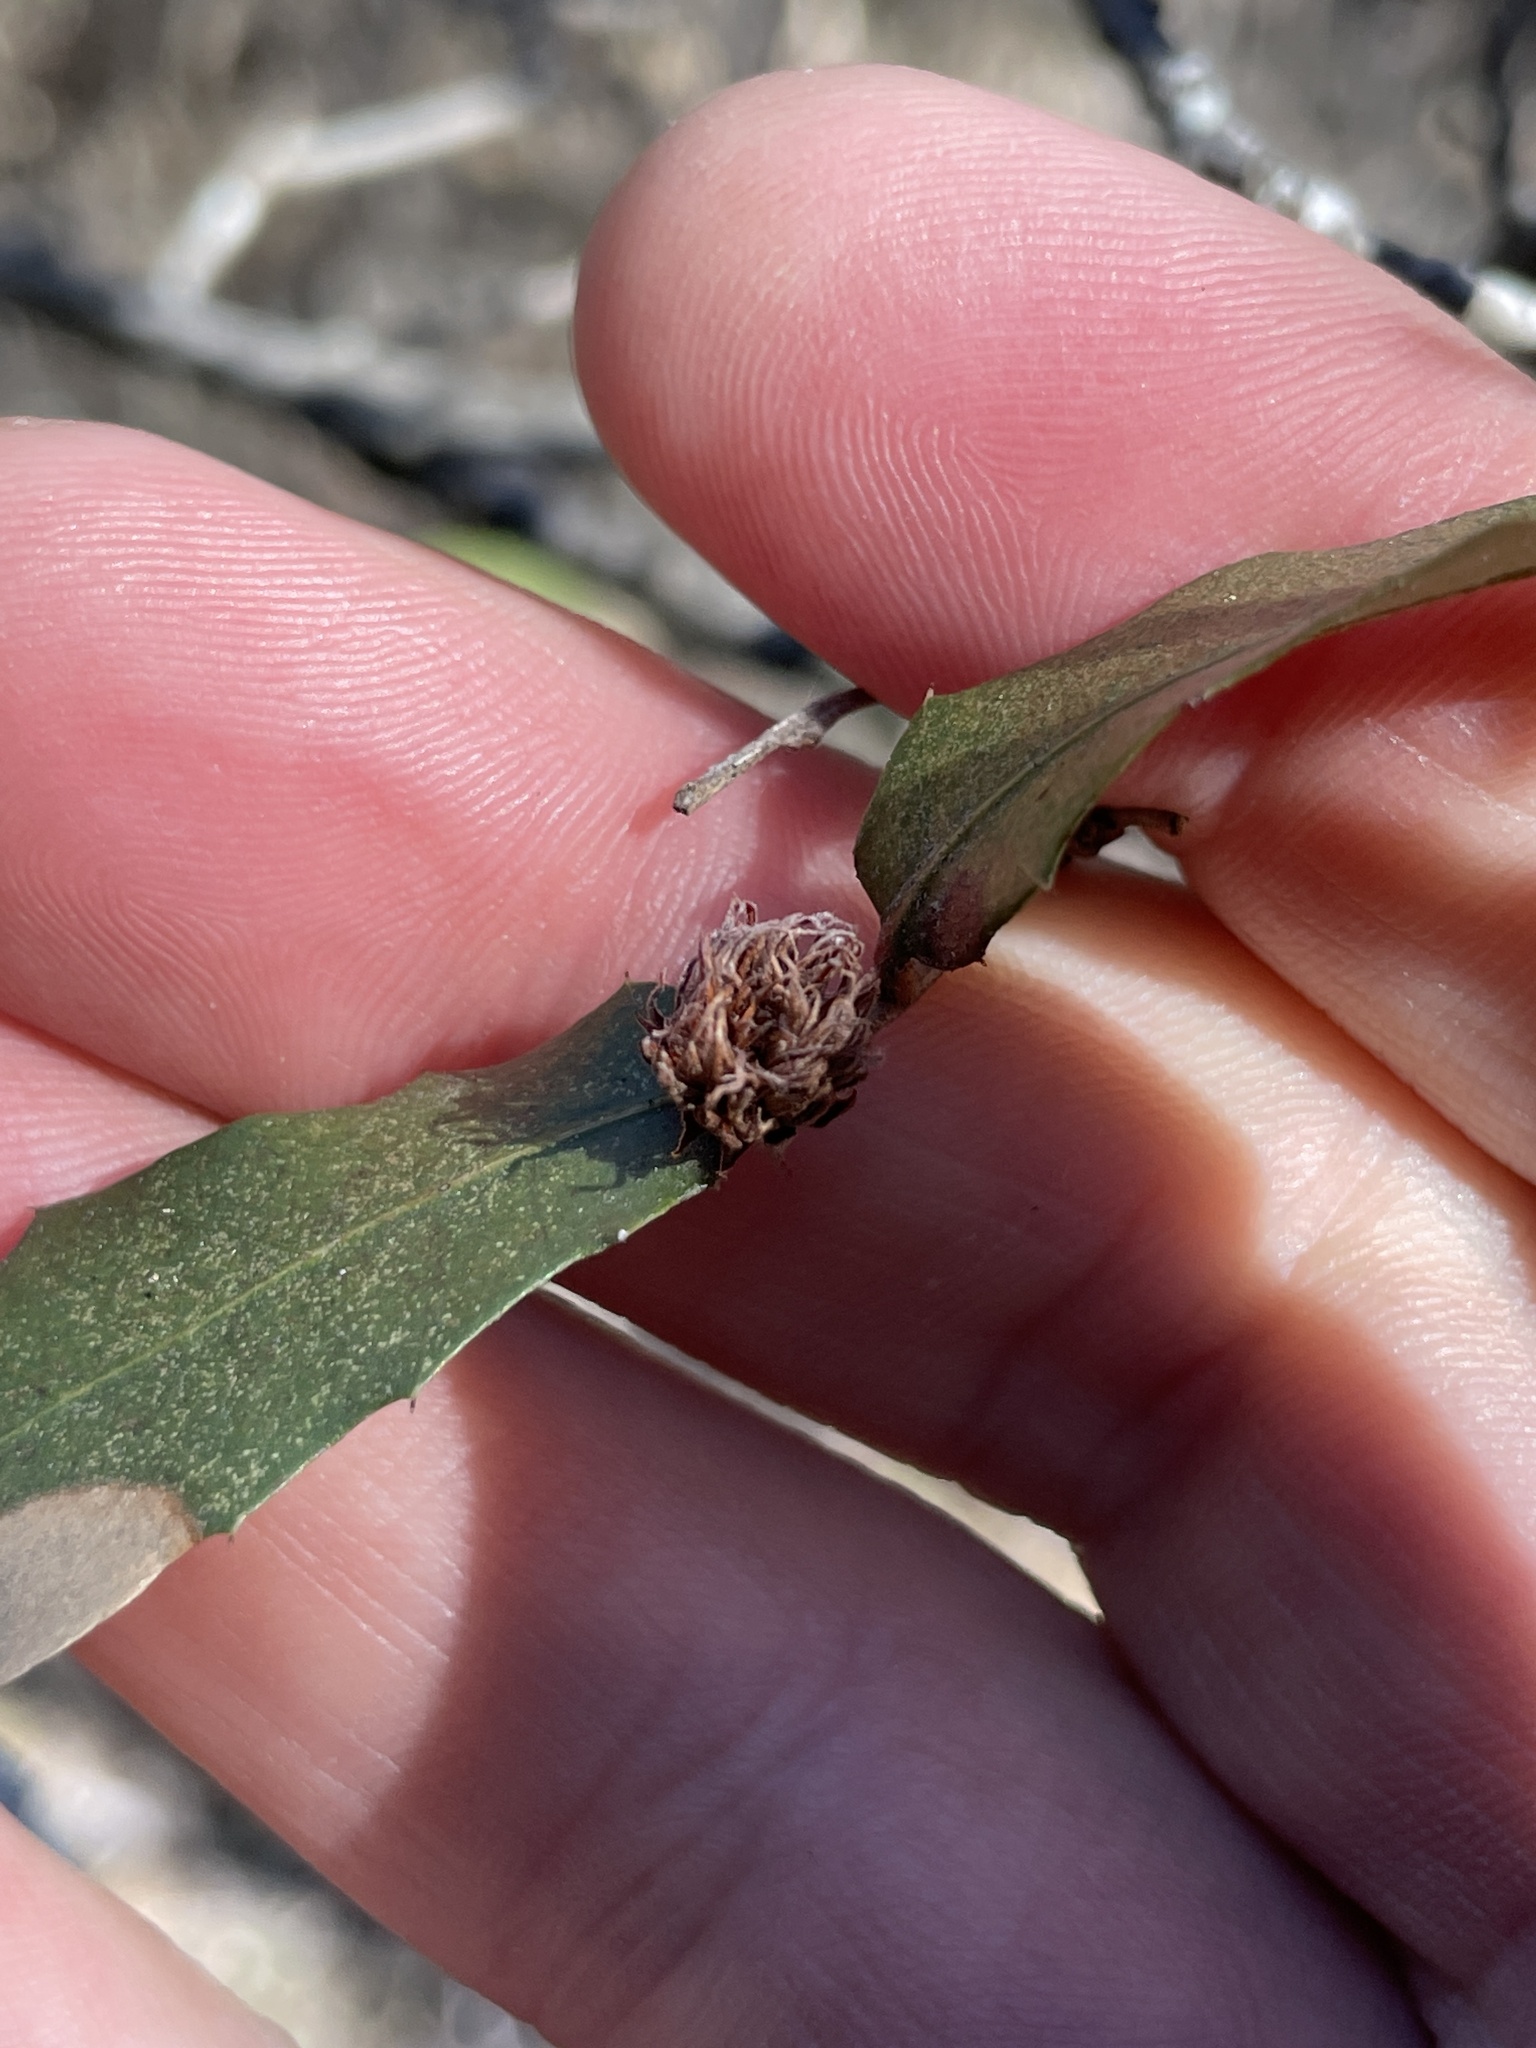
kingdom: Animalia
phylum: Arthropoda
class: Insecta
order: Hymenoptera
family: Cynipidae
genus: Andricus
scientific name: Andricus quercusfoliatus
